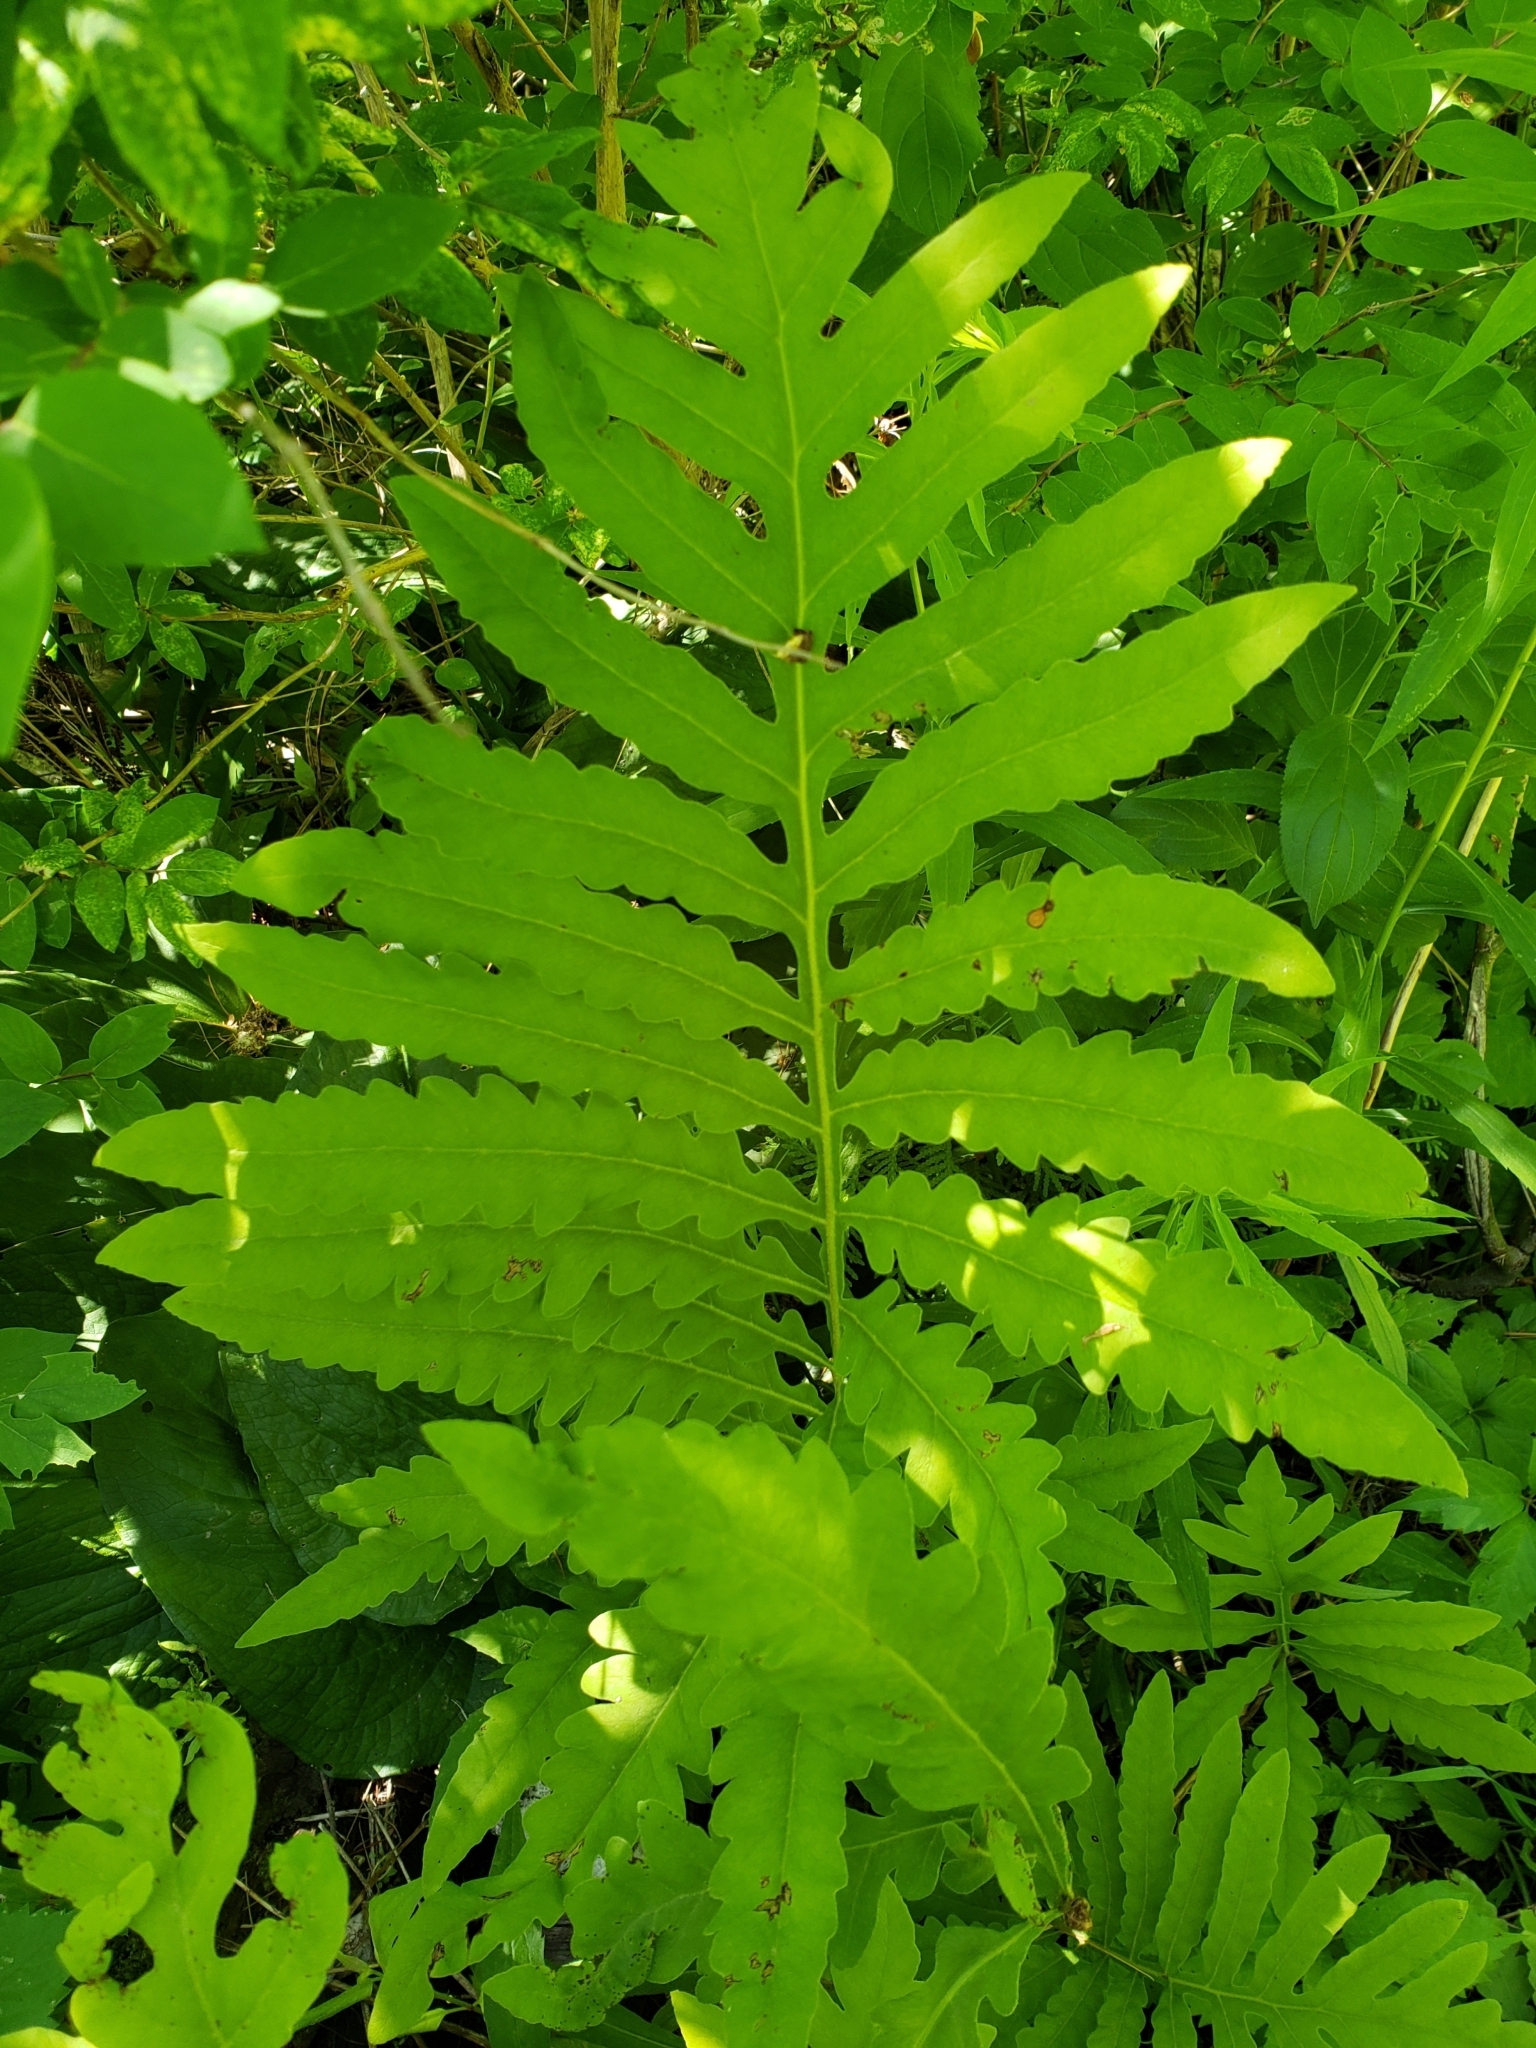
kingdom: Plantae
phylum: Tracheophyta
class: Polypodiopsida
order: Polypodiales
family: Onocleaceae
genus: Onoclea
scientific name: Onoclea sensibilis
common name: Sensitive fern
